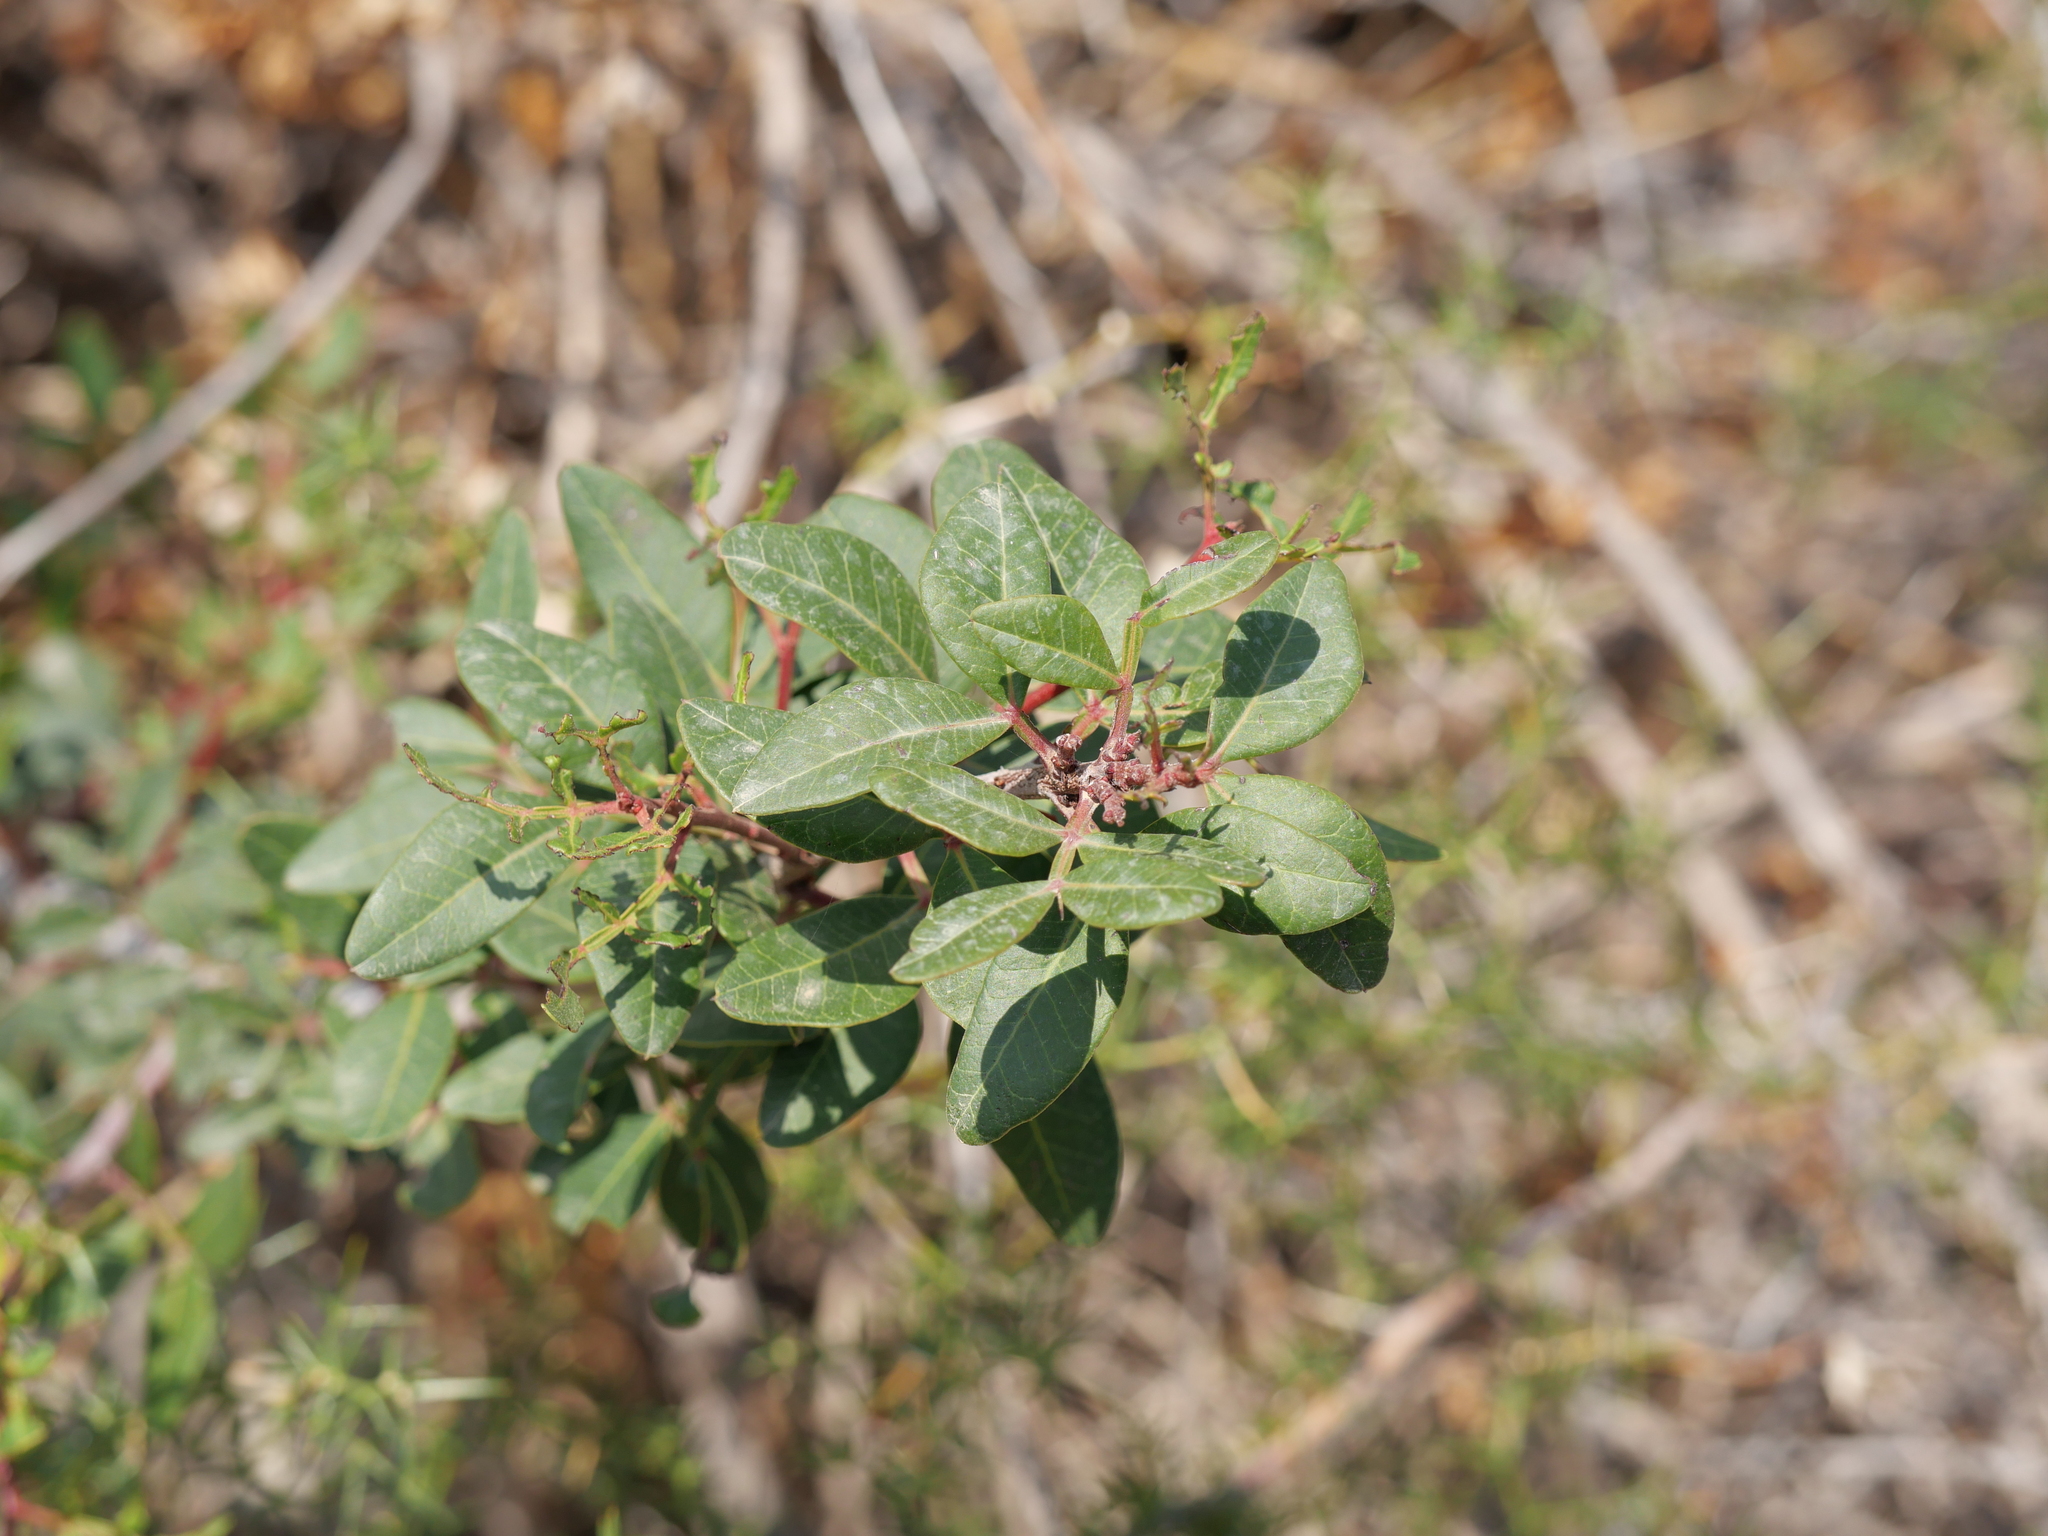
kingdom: Plantae
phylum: Tracheophyta
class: Magnoliopsida
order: Sapindales
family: Anacardiaceae
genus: Pistacia
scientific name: Pistacia lentiscus
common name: Lentisk
